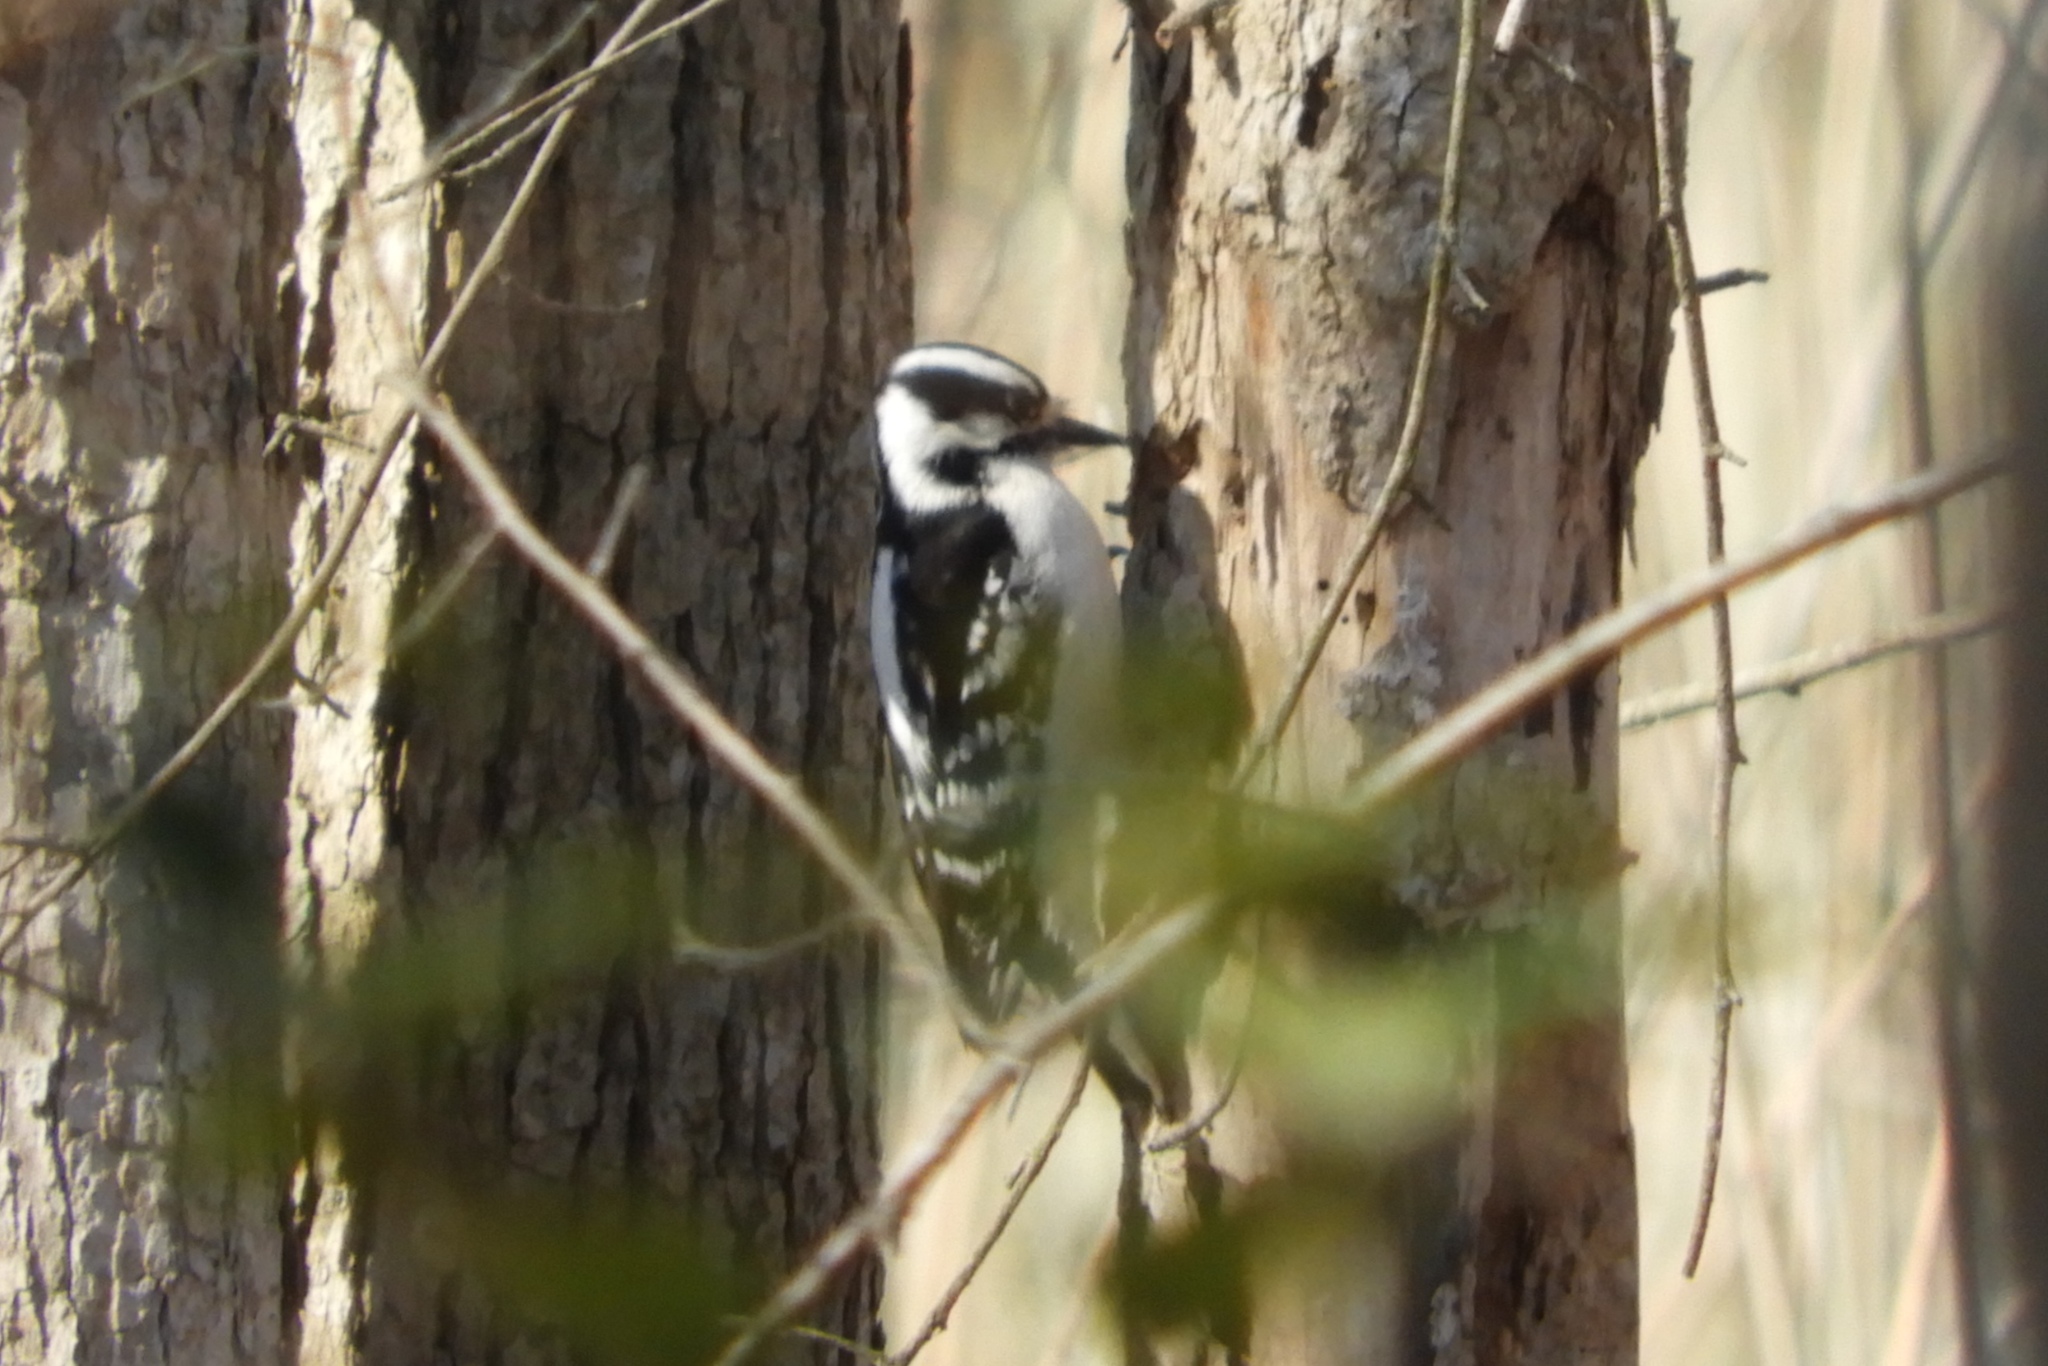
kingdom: Animalia
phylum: Chordata
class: Aves
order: Piciformes
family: Picidae
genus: Leuconotopicus
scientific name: Leuconotopicus villosus
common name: Hairy woodpecker
